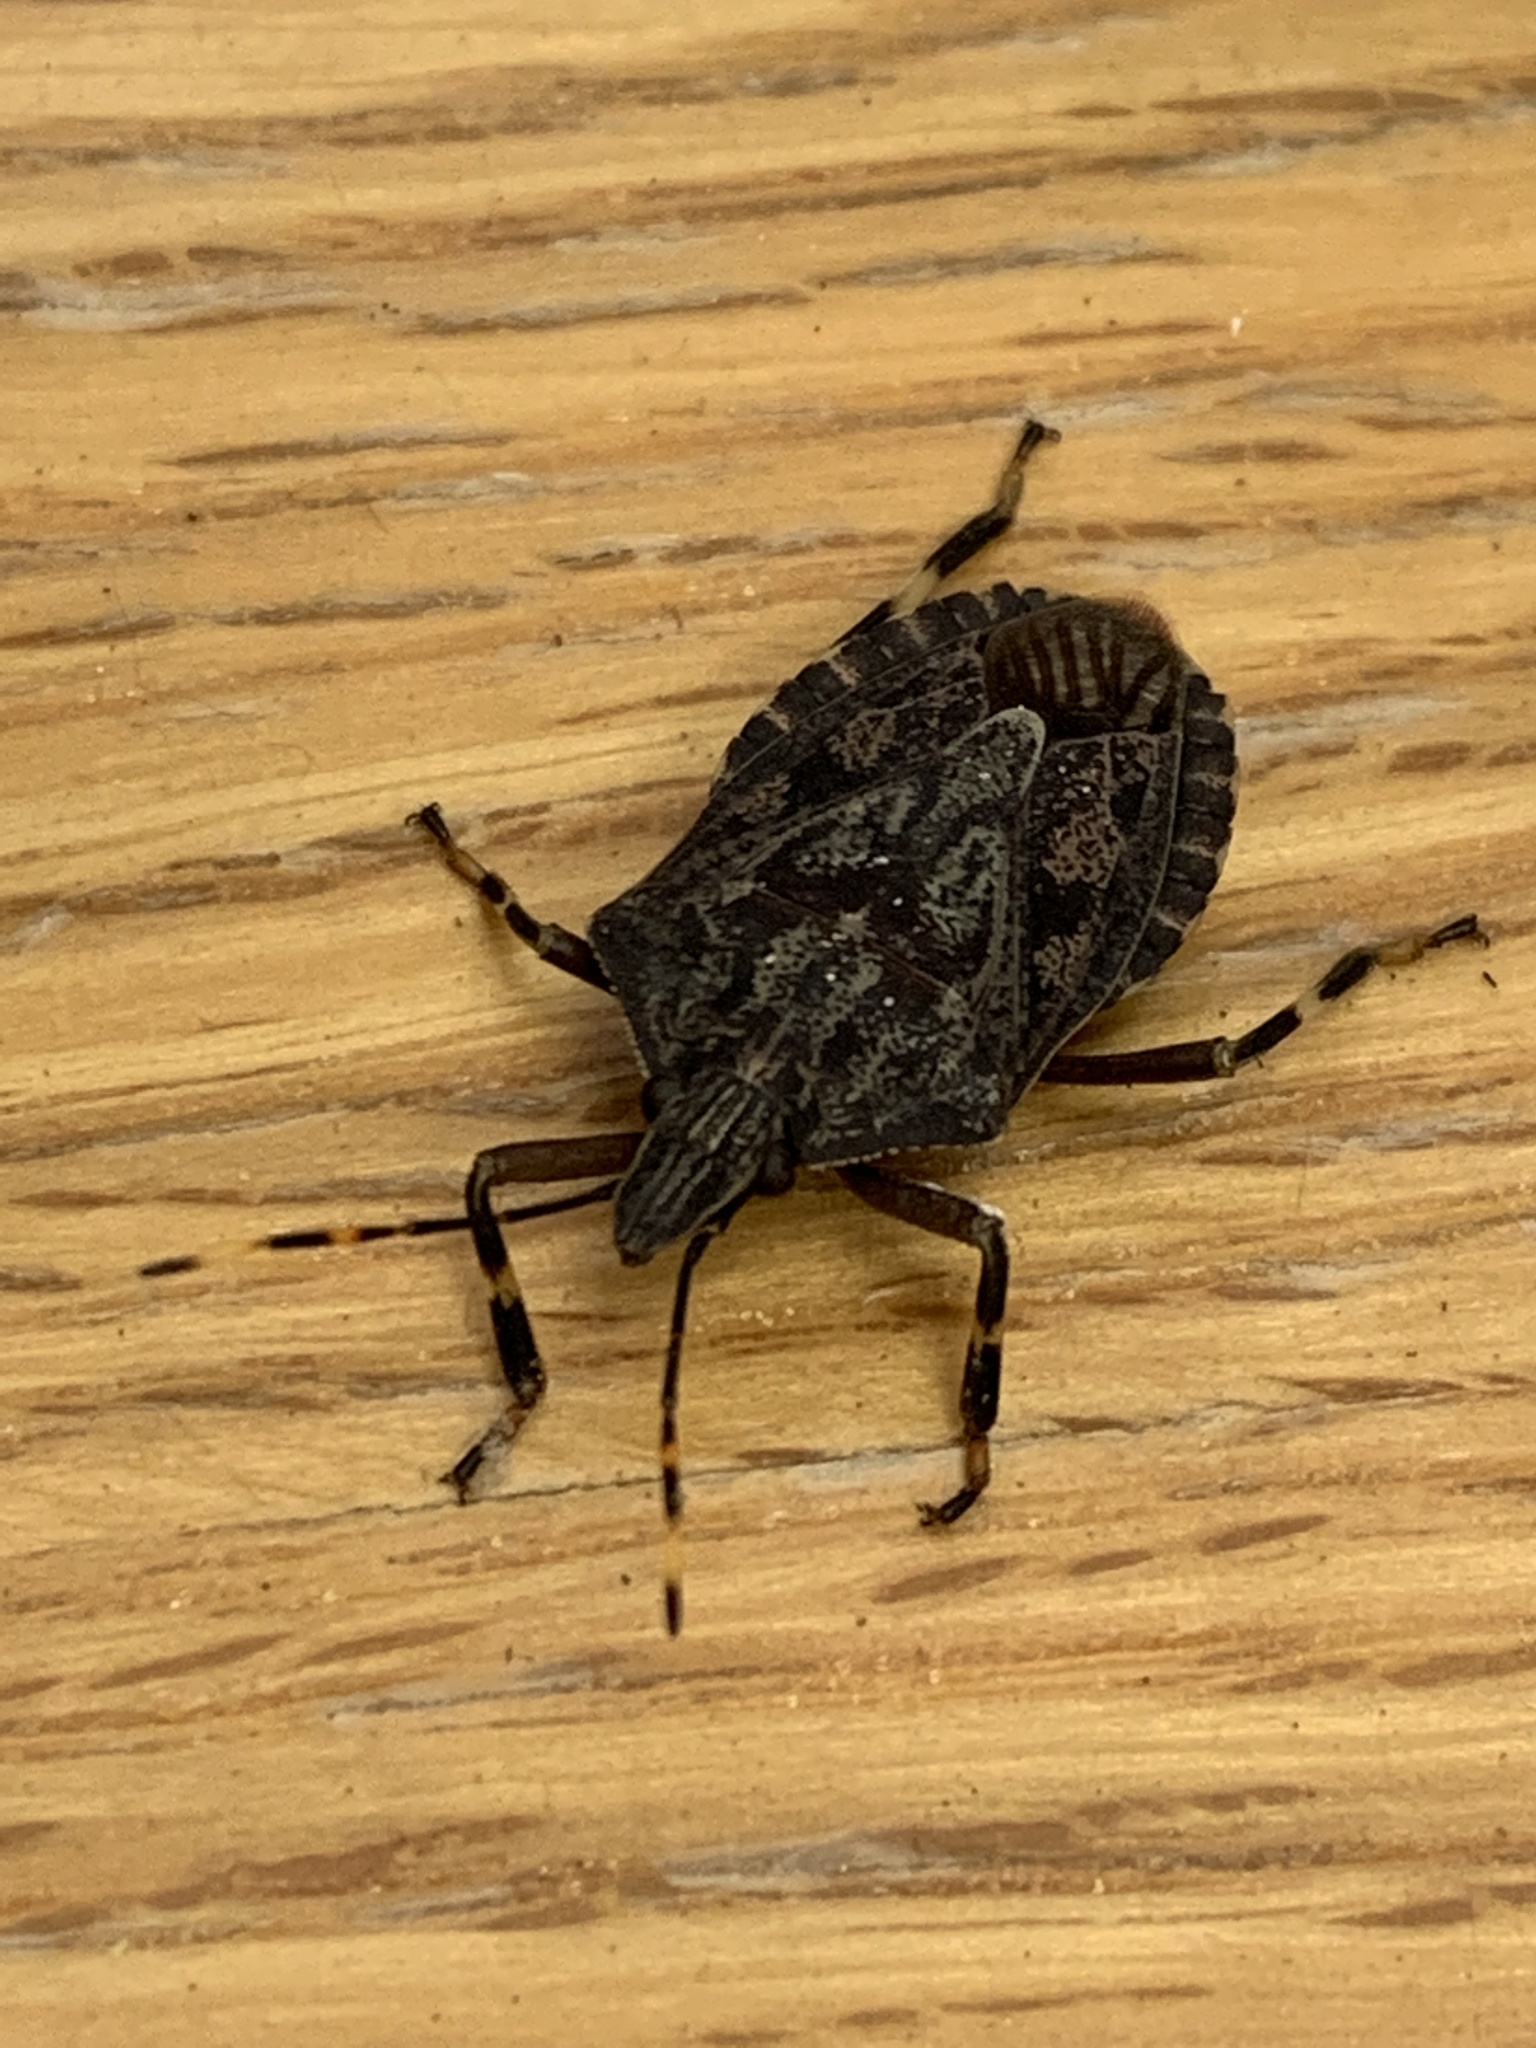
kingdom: Animalia
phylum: Arthropoda
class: Insecta
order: Hemiptera
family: Pentatomidae
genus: Coenomorpha
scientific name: Coenomorpha nervosa
